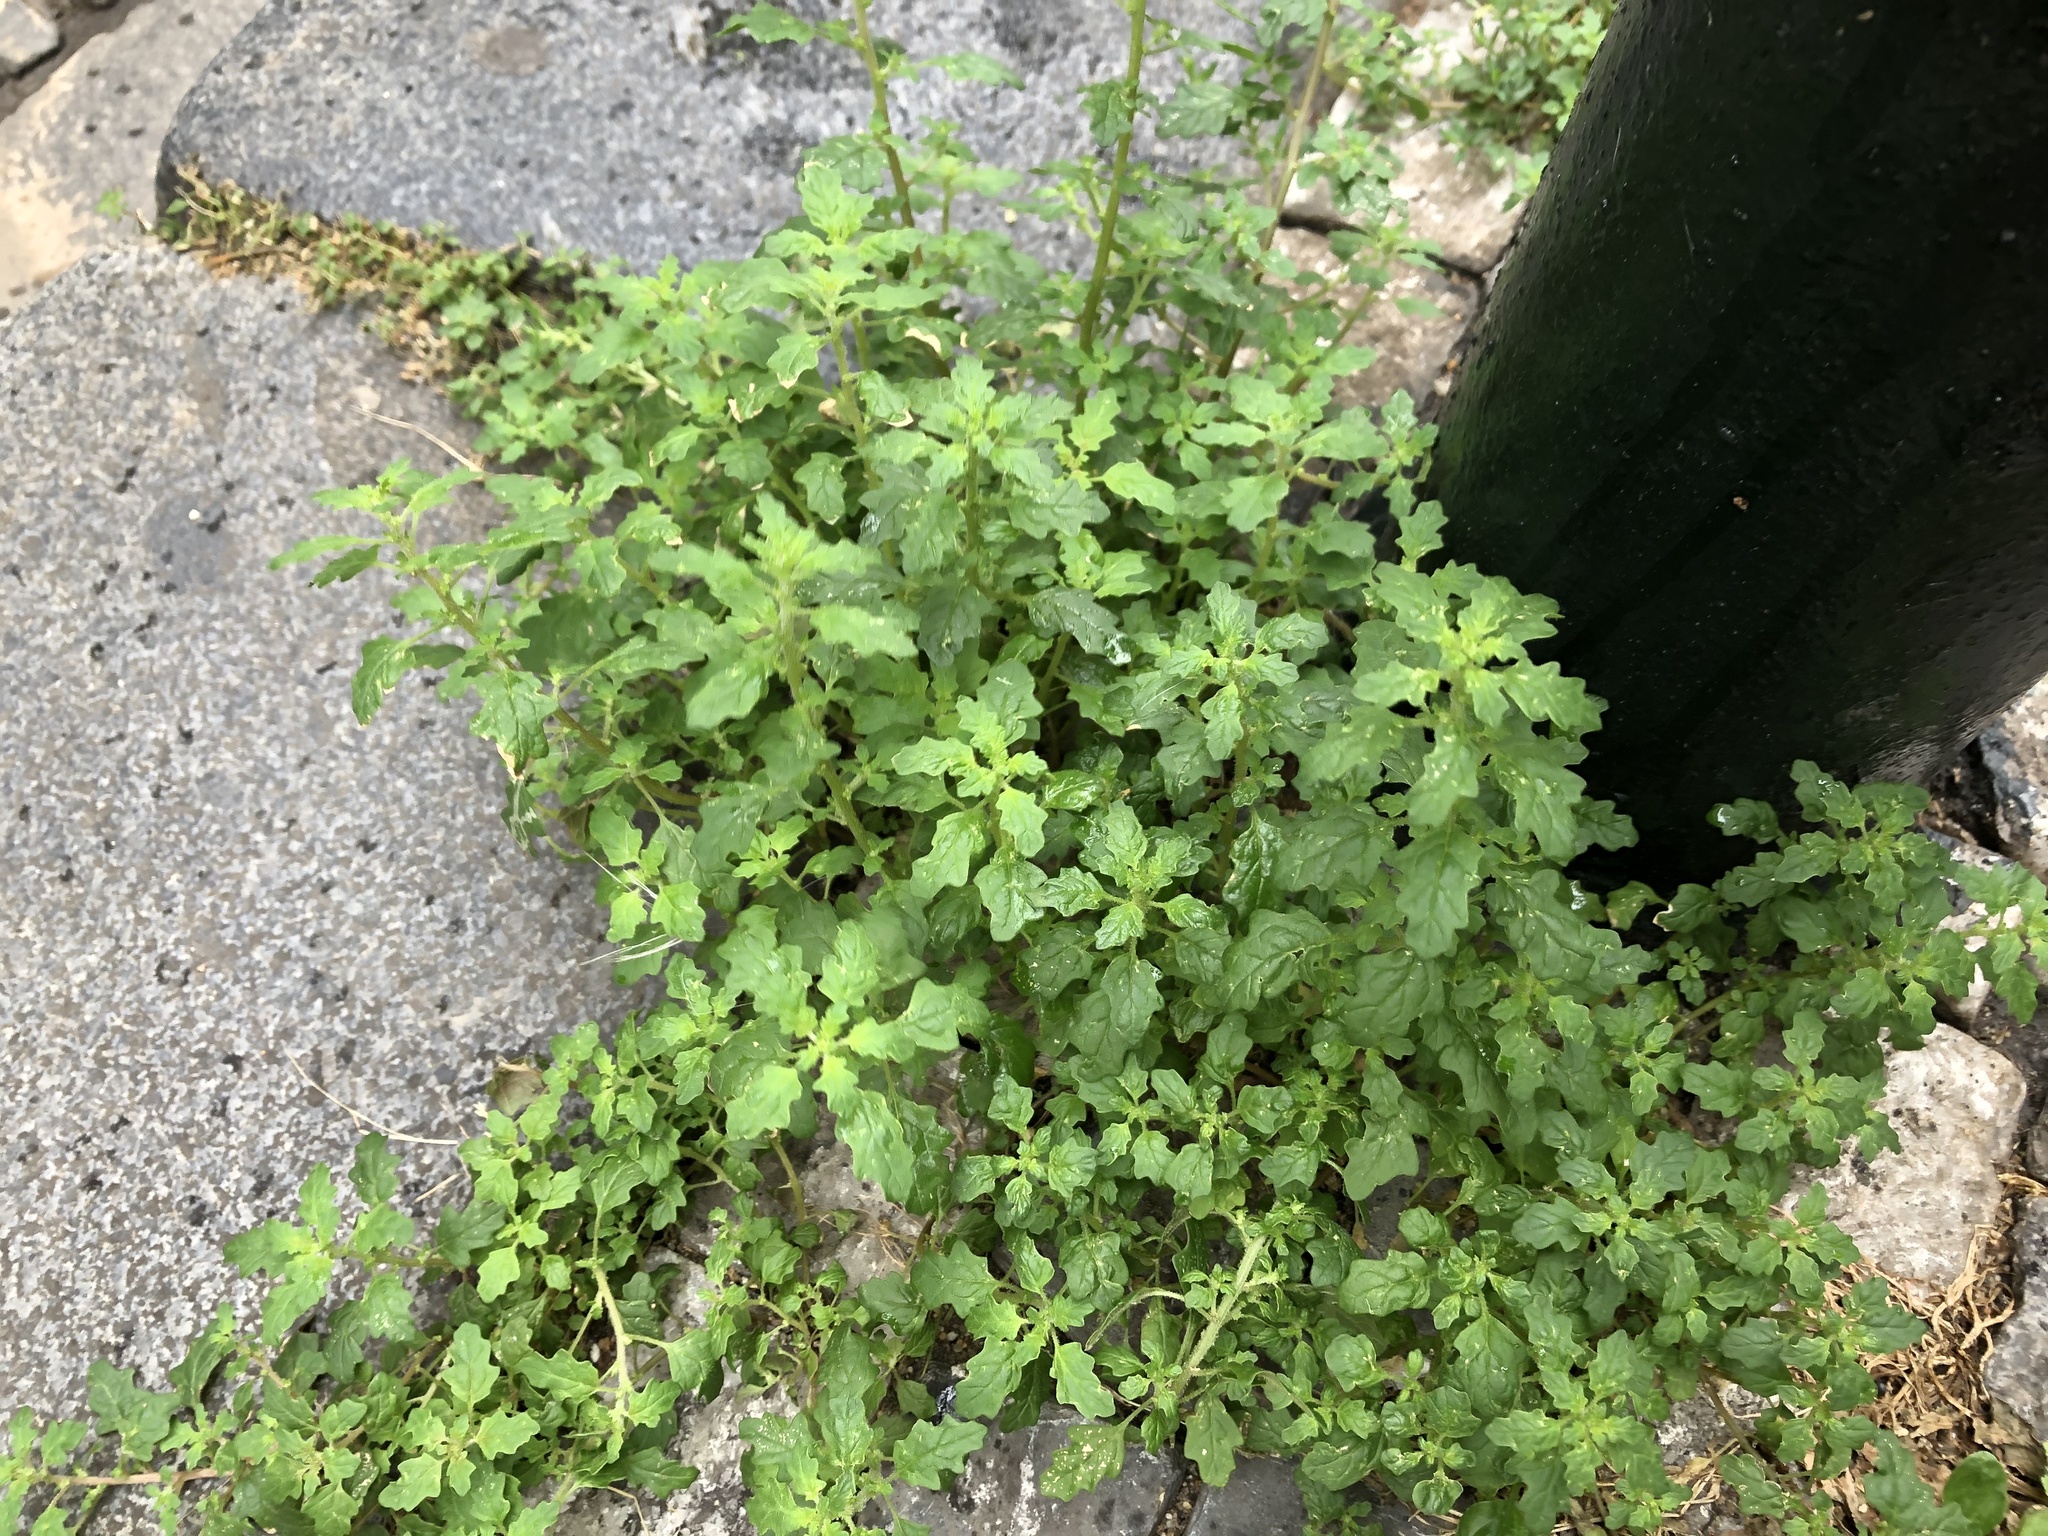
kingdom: Plantae
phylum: Tracheophyta
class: Magnoliopsida
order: Caryophyllales
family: Amaranthaceae
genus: Dysphania
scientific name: Dysphania pumilio
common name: Clammy goosefoot
